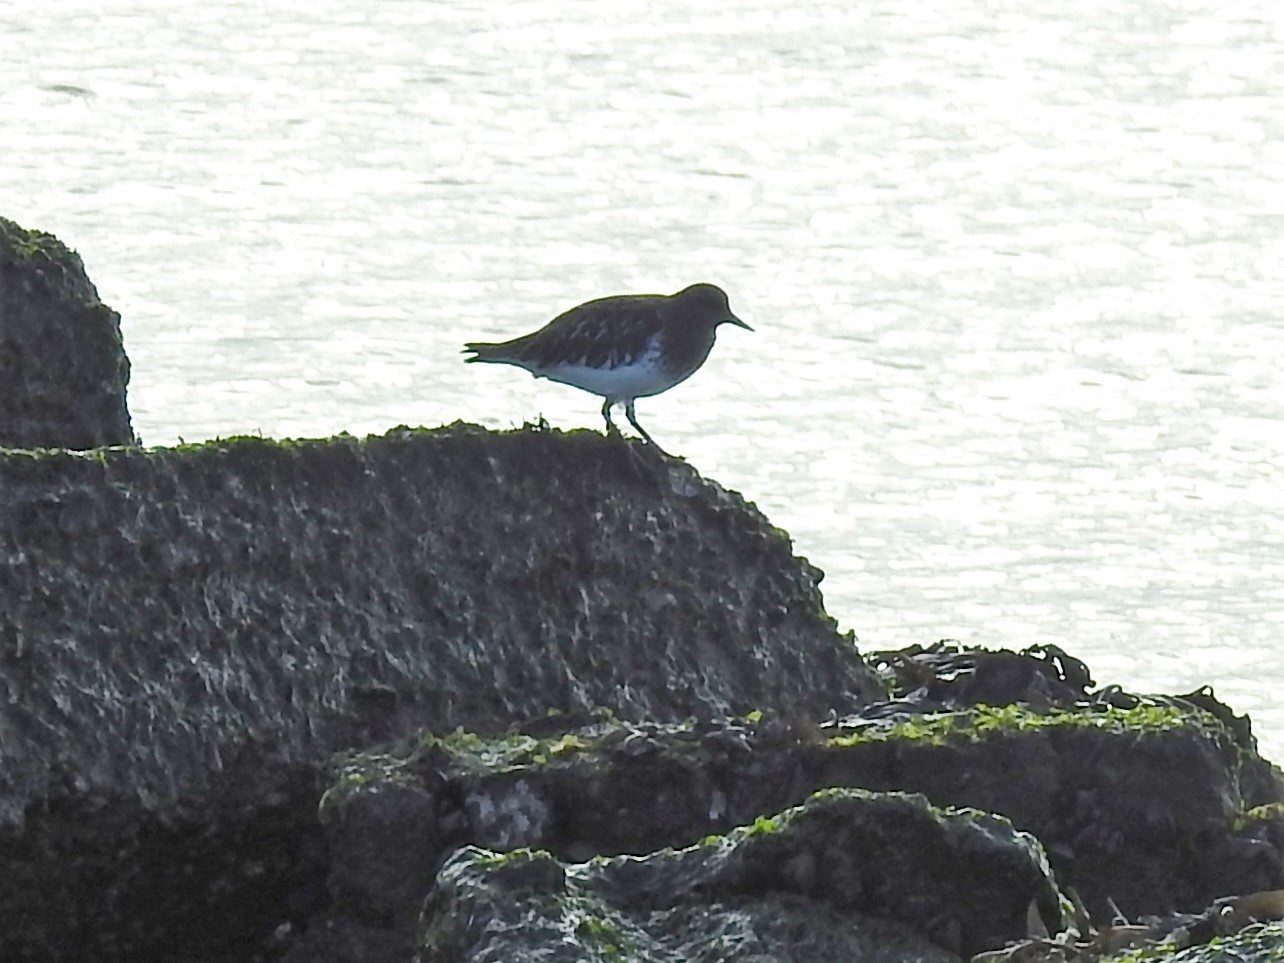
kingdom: Animalia
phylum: Chordata
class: Aves
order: Charadriiformes
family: Scolopacidae
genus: Arenaria
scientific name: Arenaria melanocephala
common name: Black turnstone
